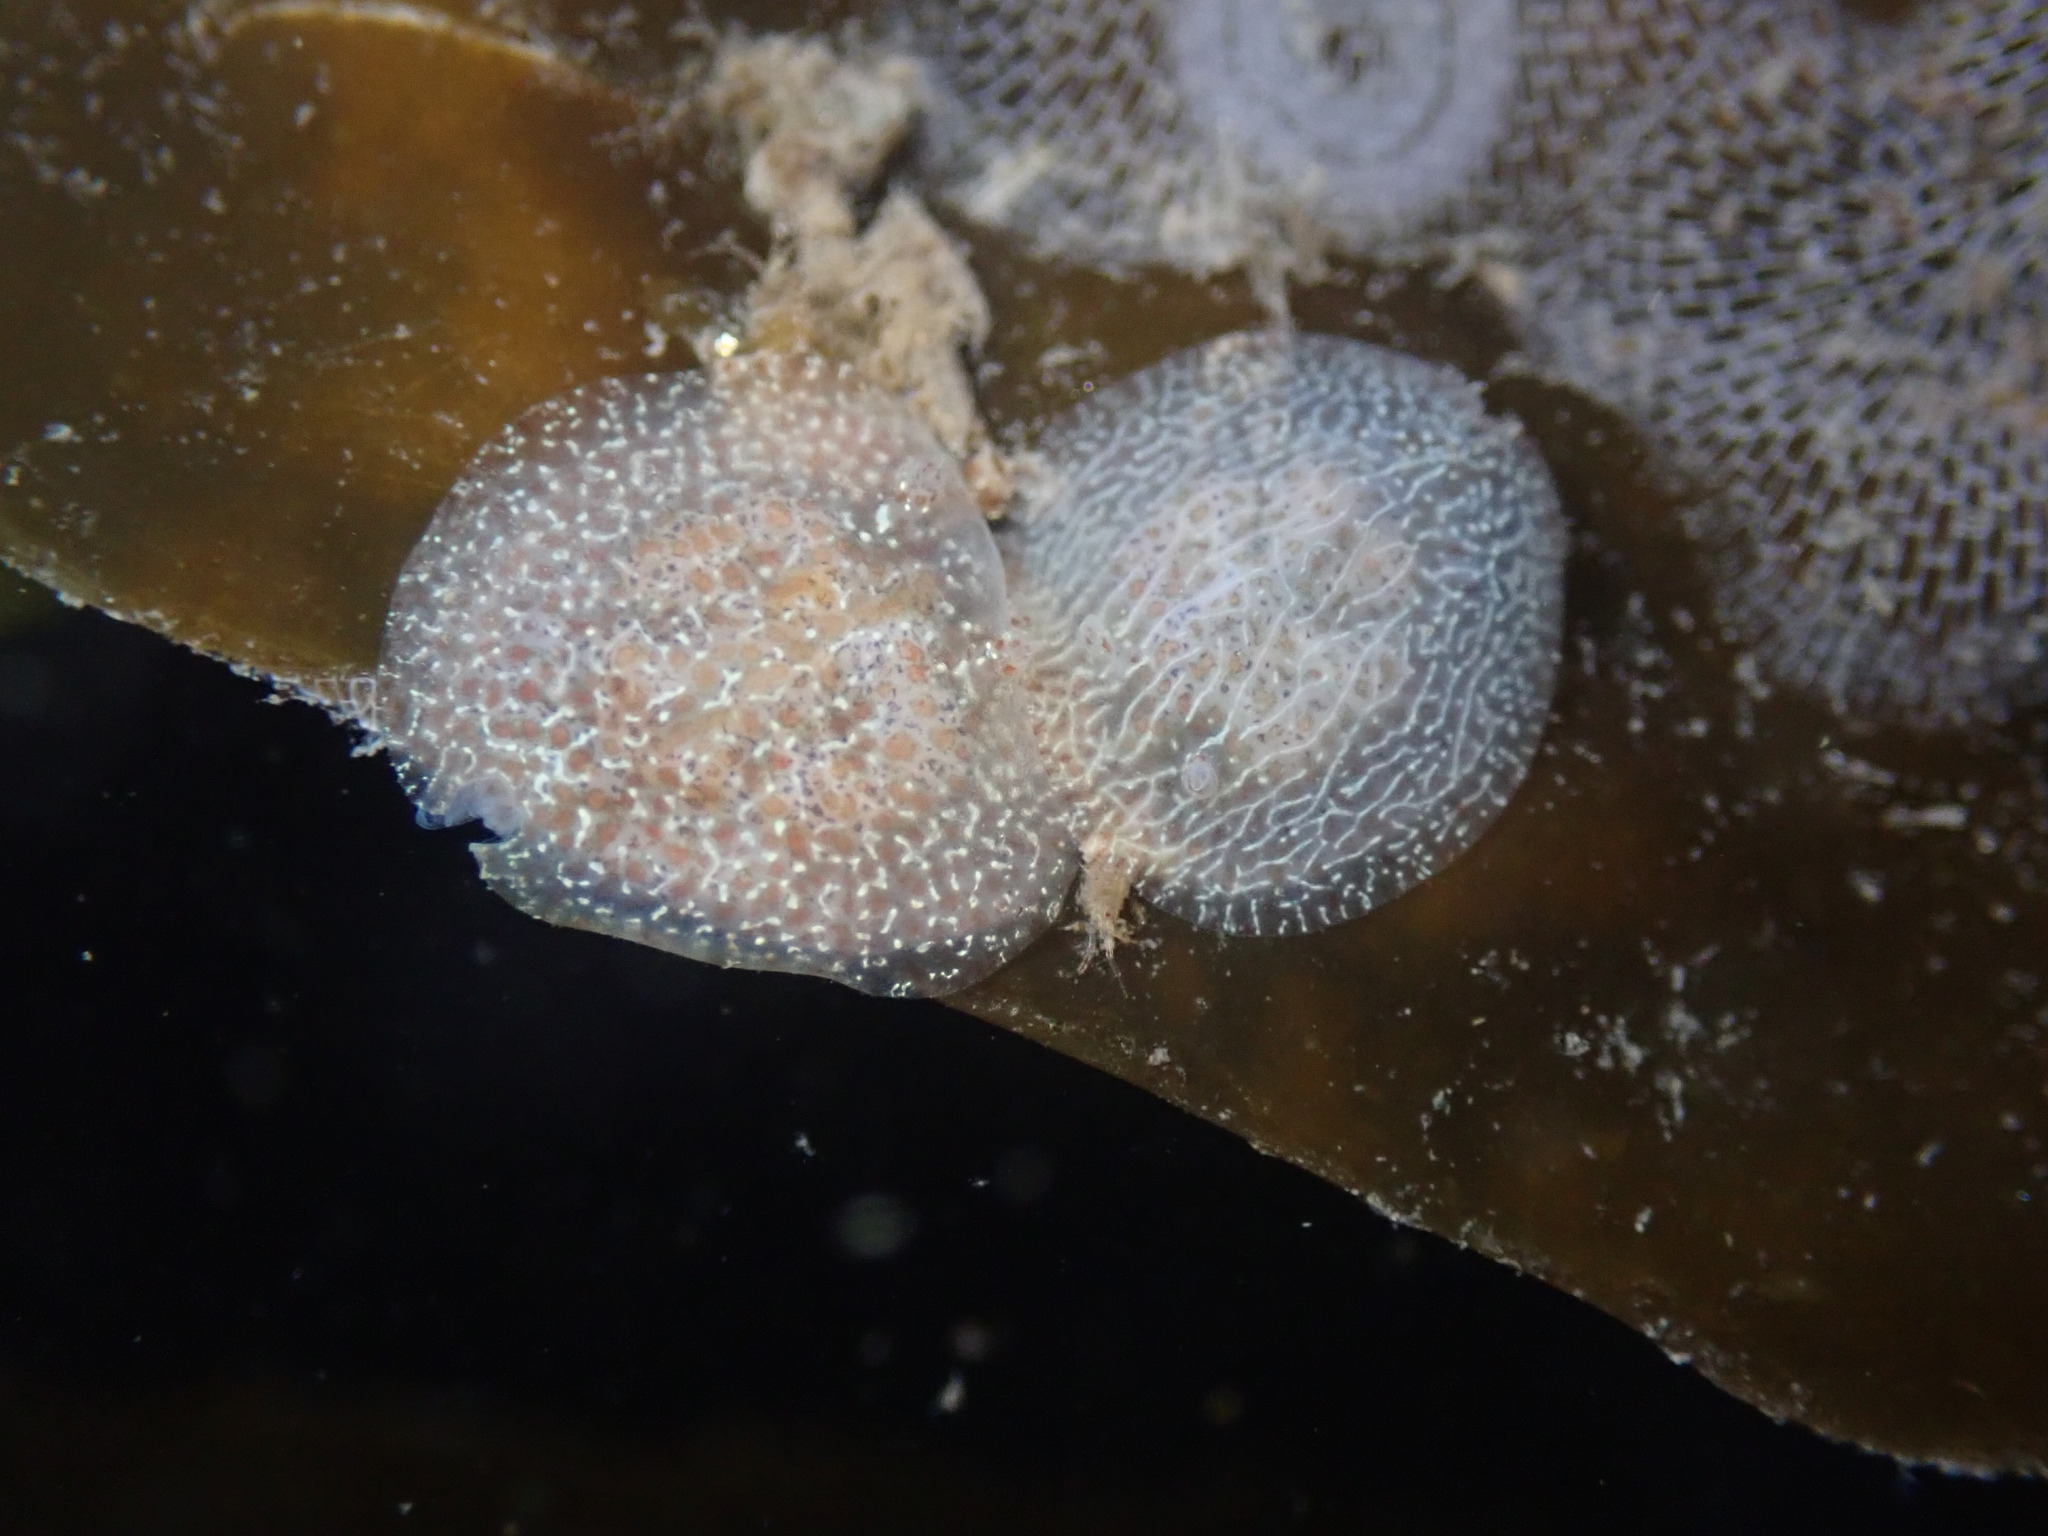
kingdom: Animalia
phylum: Mollusca
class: Gastropoda
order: Nudibranchia
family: Corambidae
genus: Corambe
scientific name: Corambe pacifica
